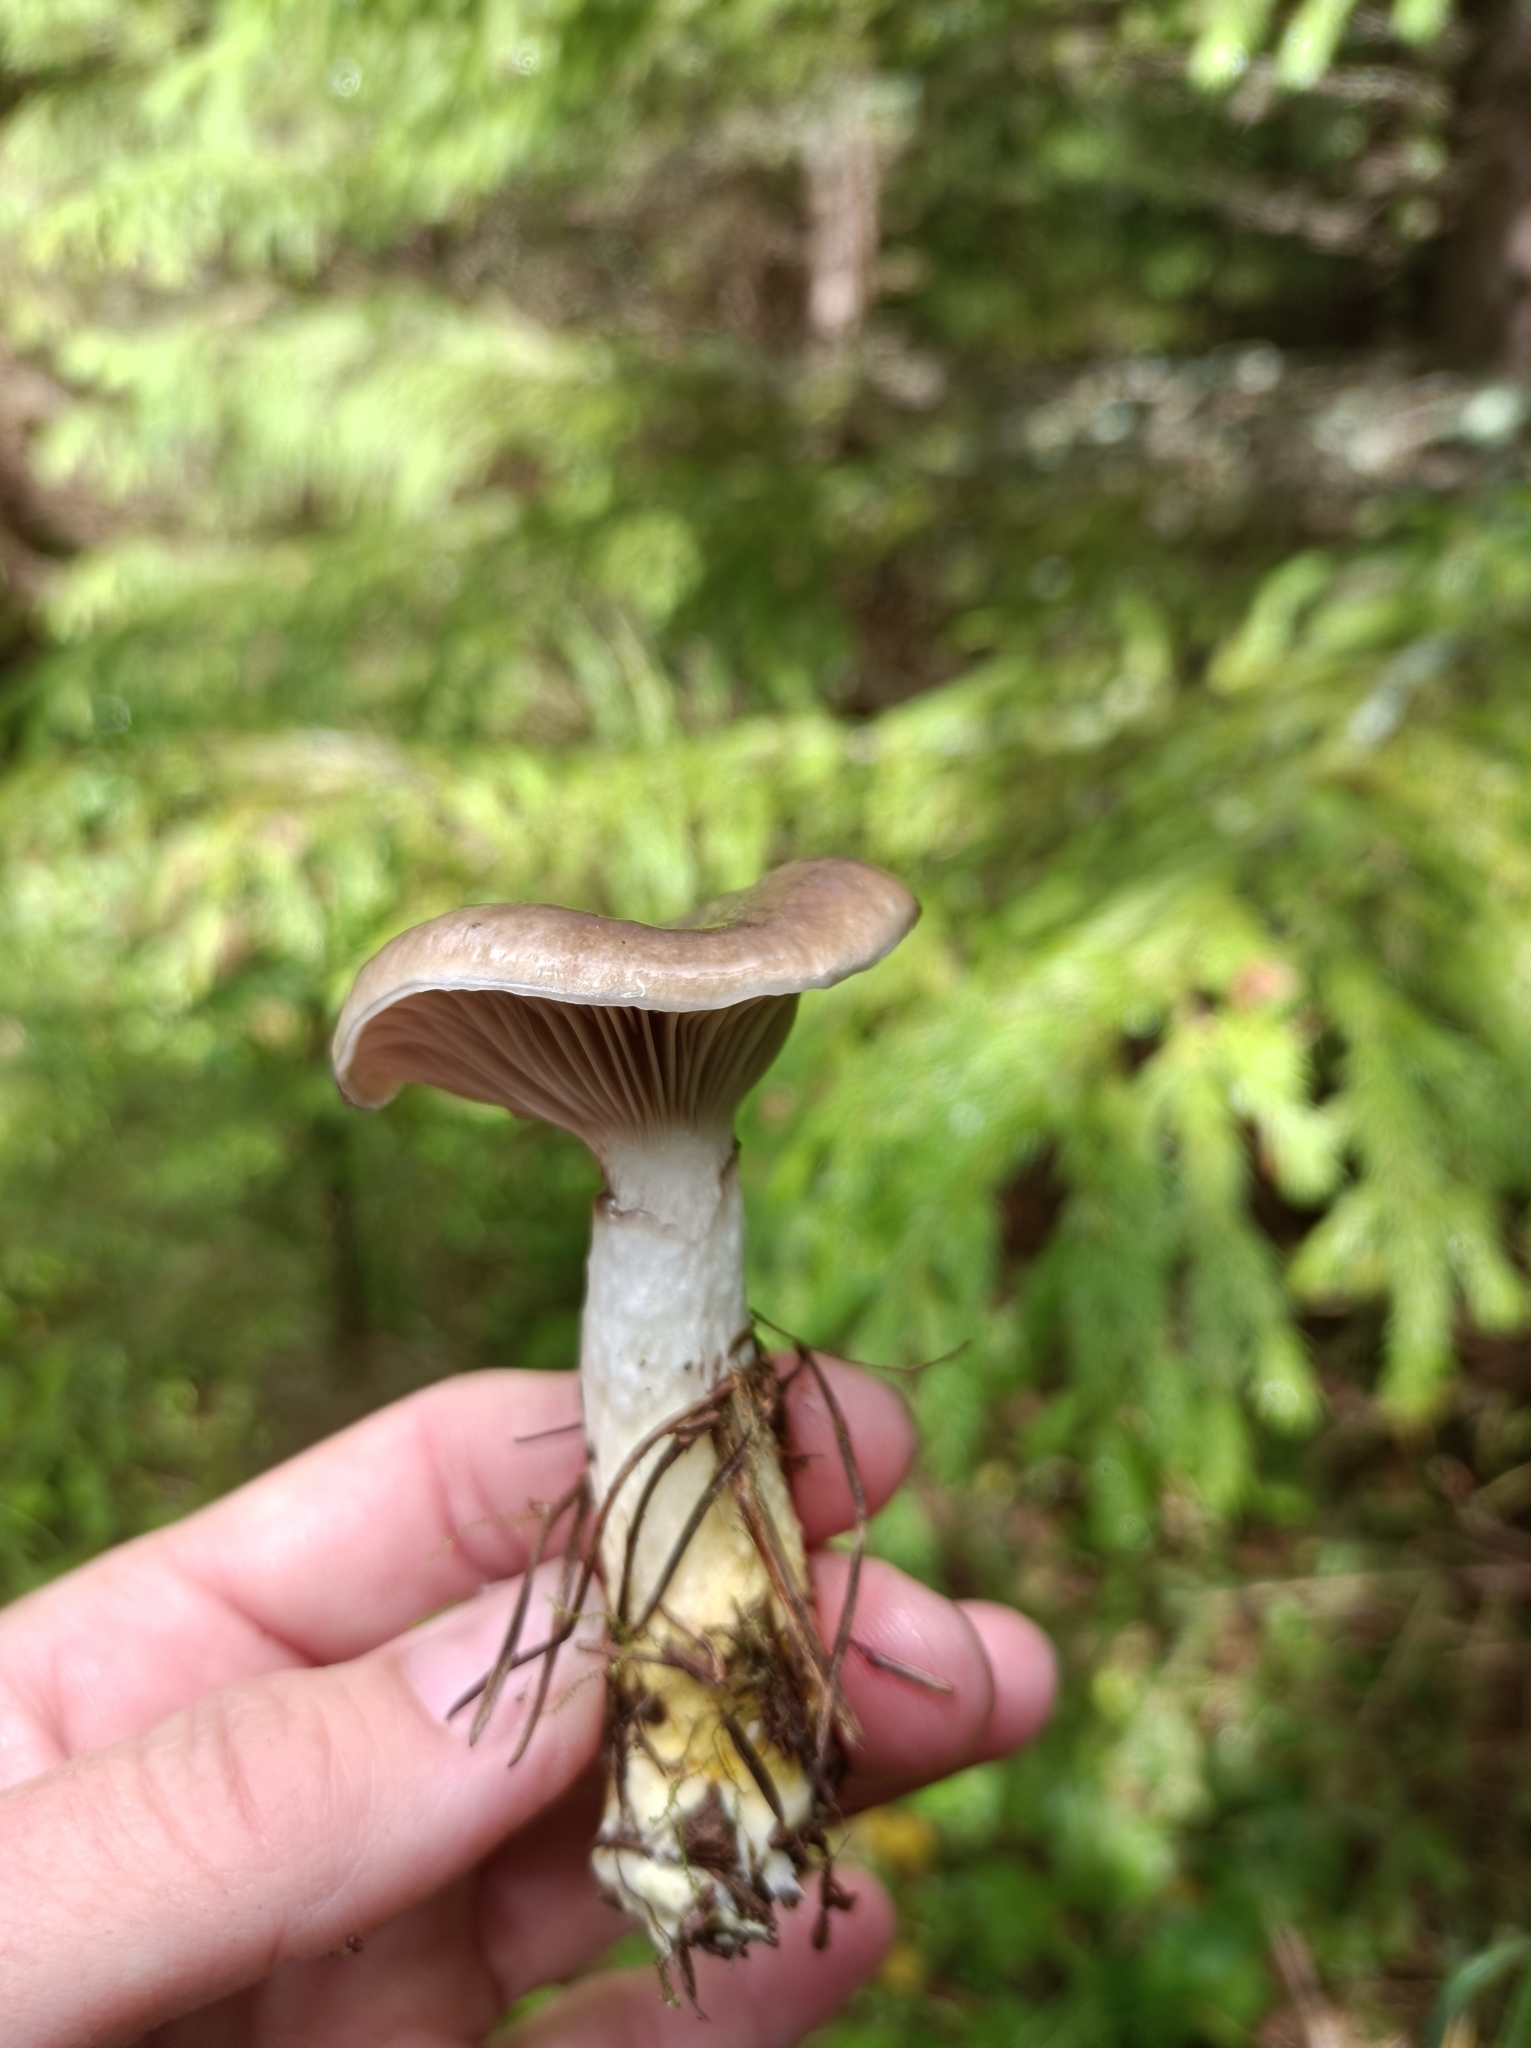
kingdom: Fungi
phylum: Basidiomycota
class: Agaricomycetes
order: Boletales
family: Gomphidiaceae
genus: Gomphidius
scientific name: Gomphidius glutinosus
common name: Slimy spike
